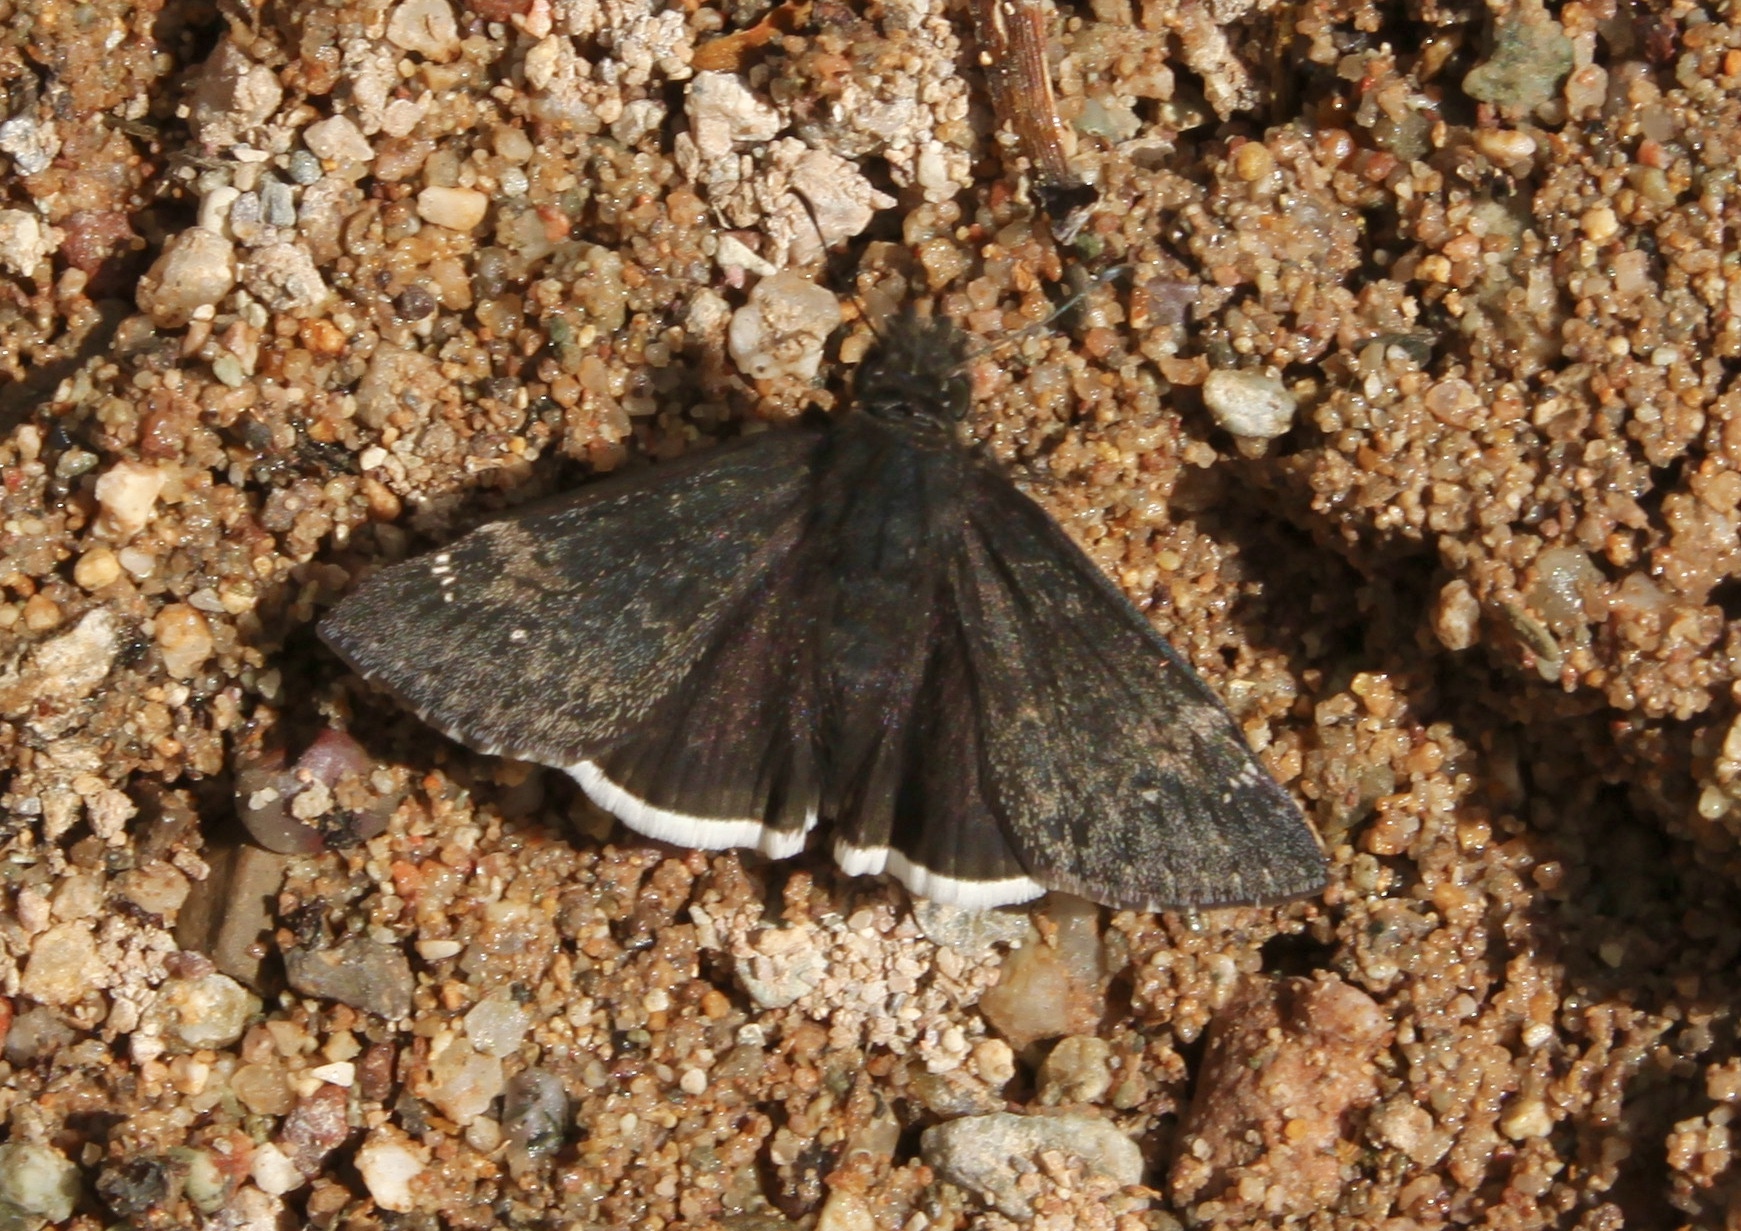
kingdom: Animalia
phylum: Arthropoda
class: Insecta
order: Lepidoptera
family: Hesperiidae
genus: Erynnis
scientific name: Erynnis funeralis
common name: Funereal duskywing
